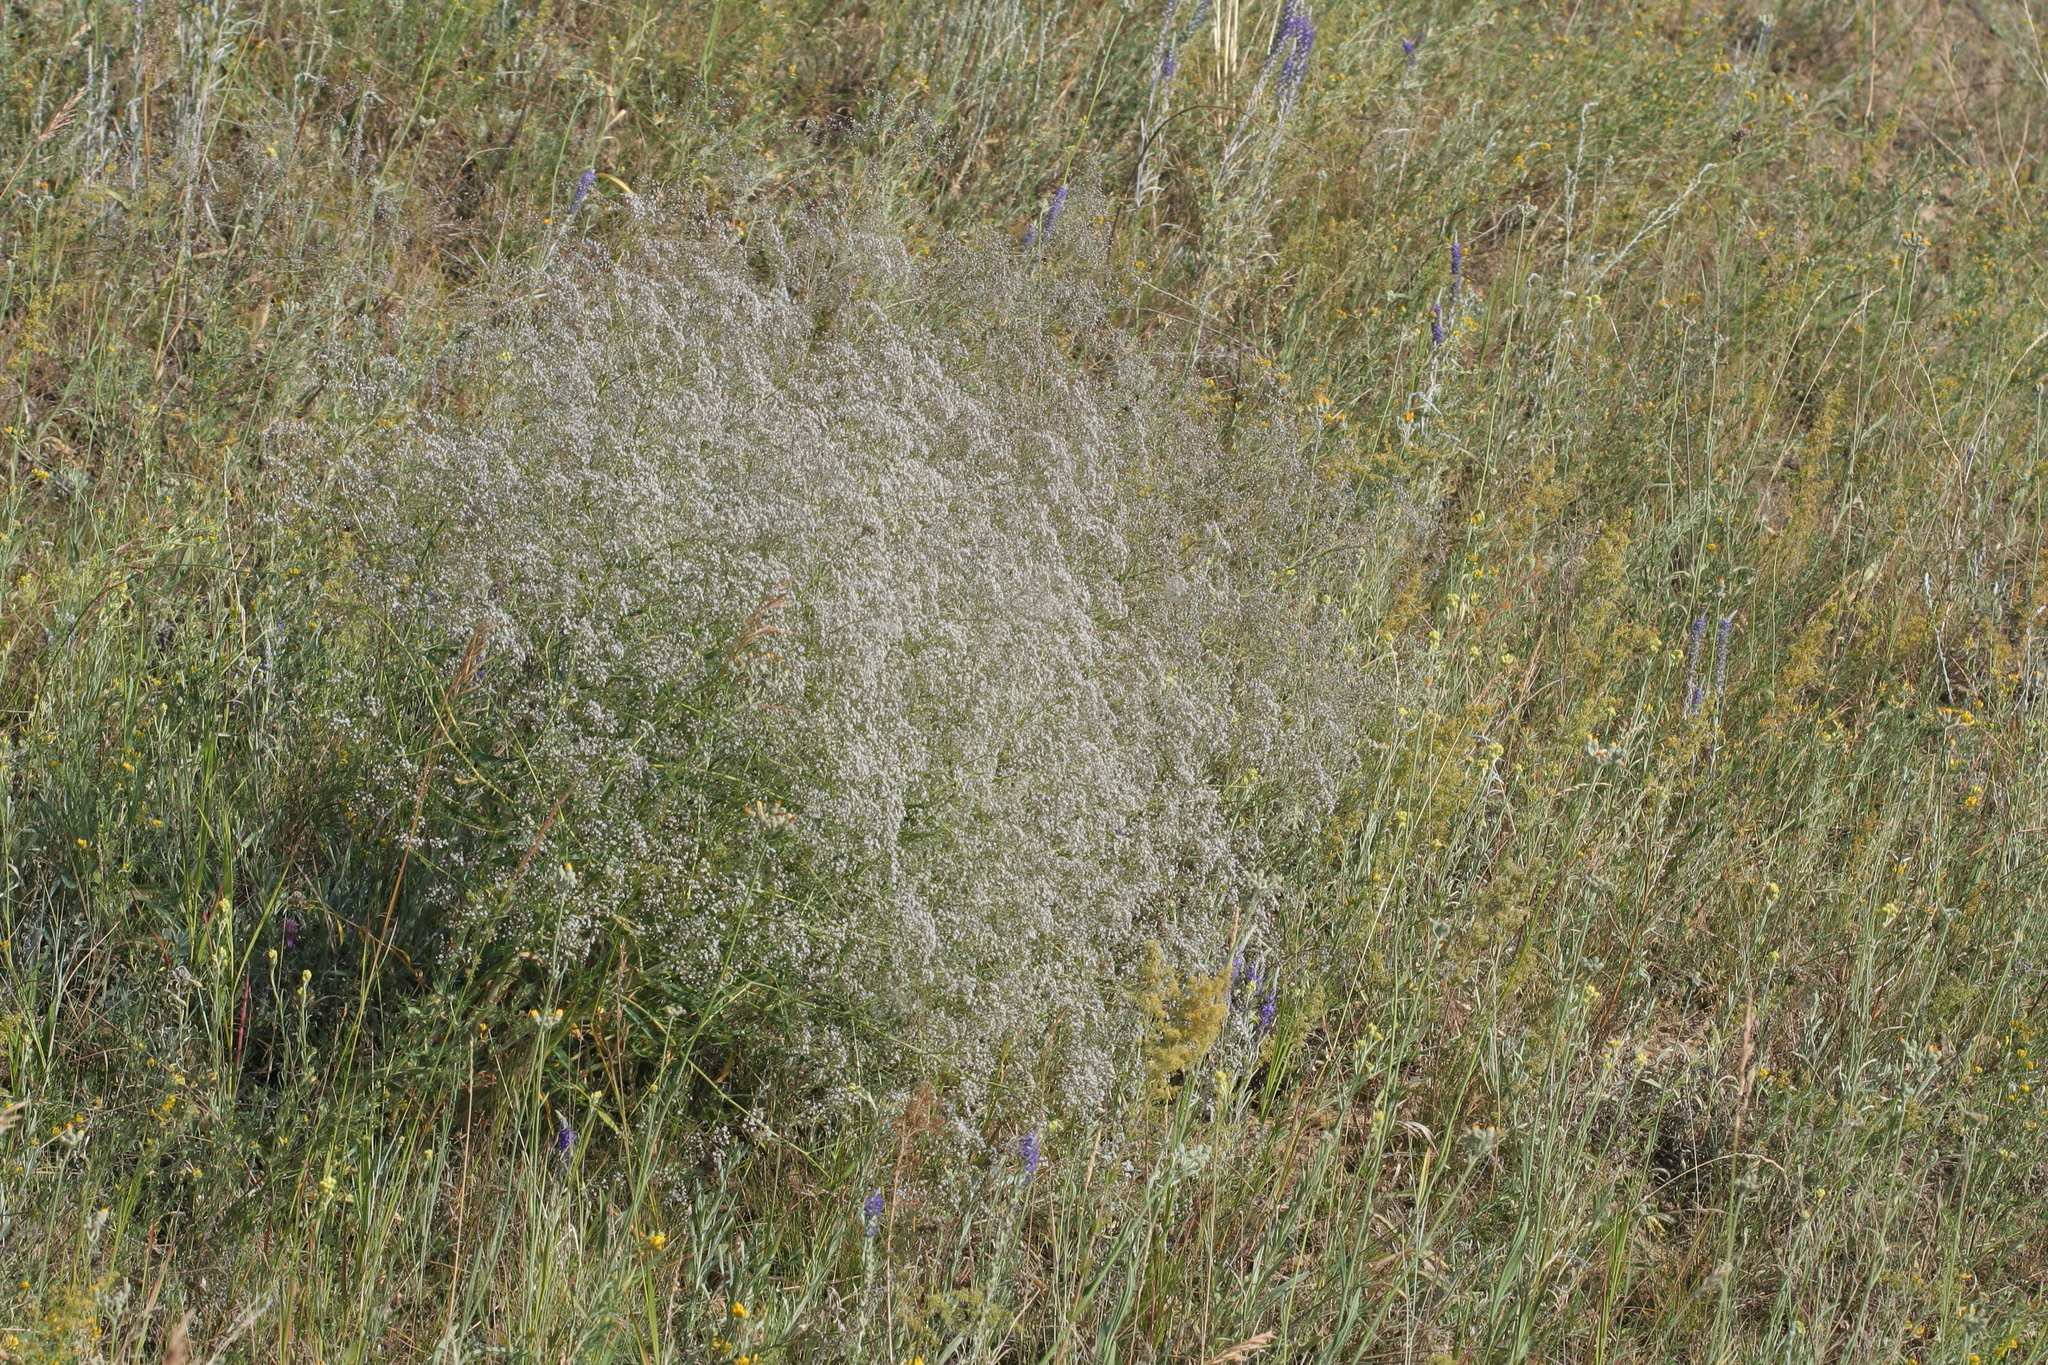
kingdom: Plantae
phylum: Tracheophyta
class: Magnoliopsida
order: Caryophyllales
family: Caryophyllaceae
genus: Gypsophila
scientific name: Gypsophila paniculata
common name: Baby's-breath
